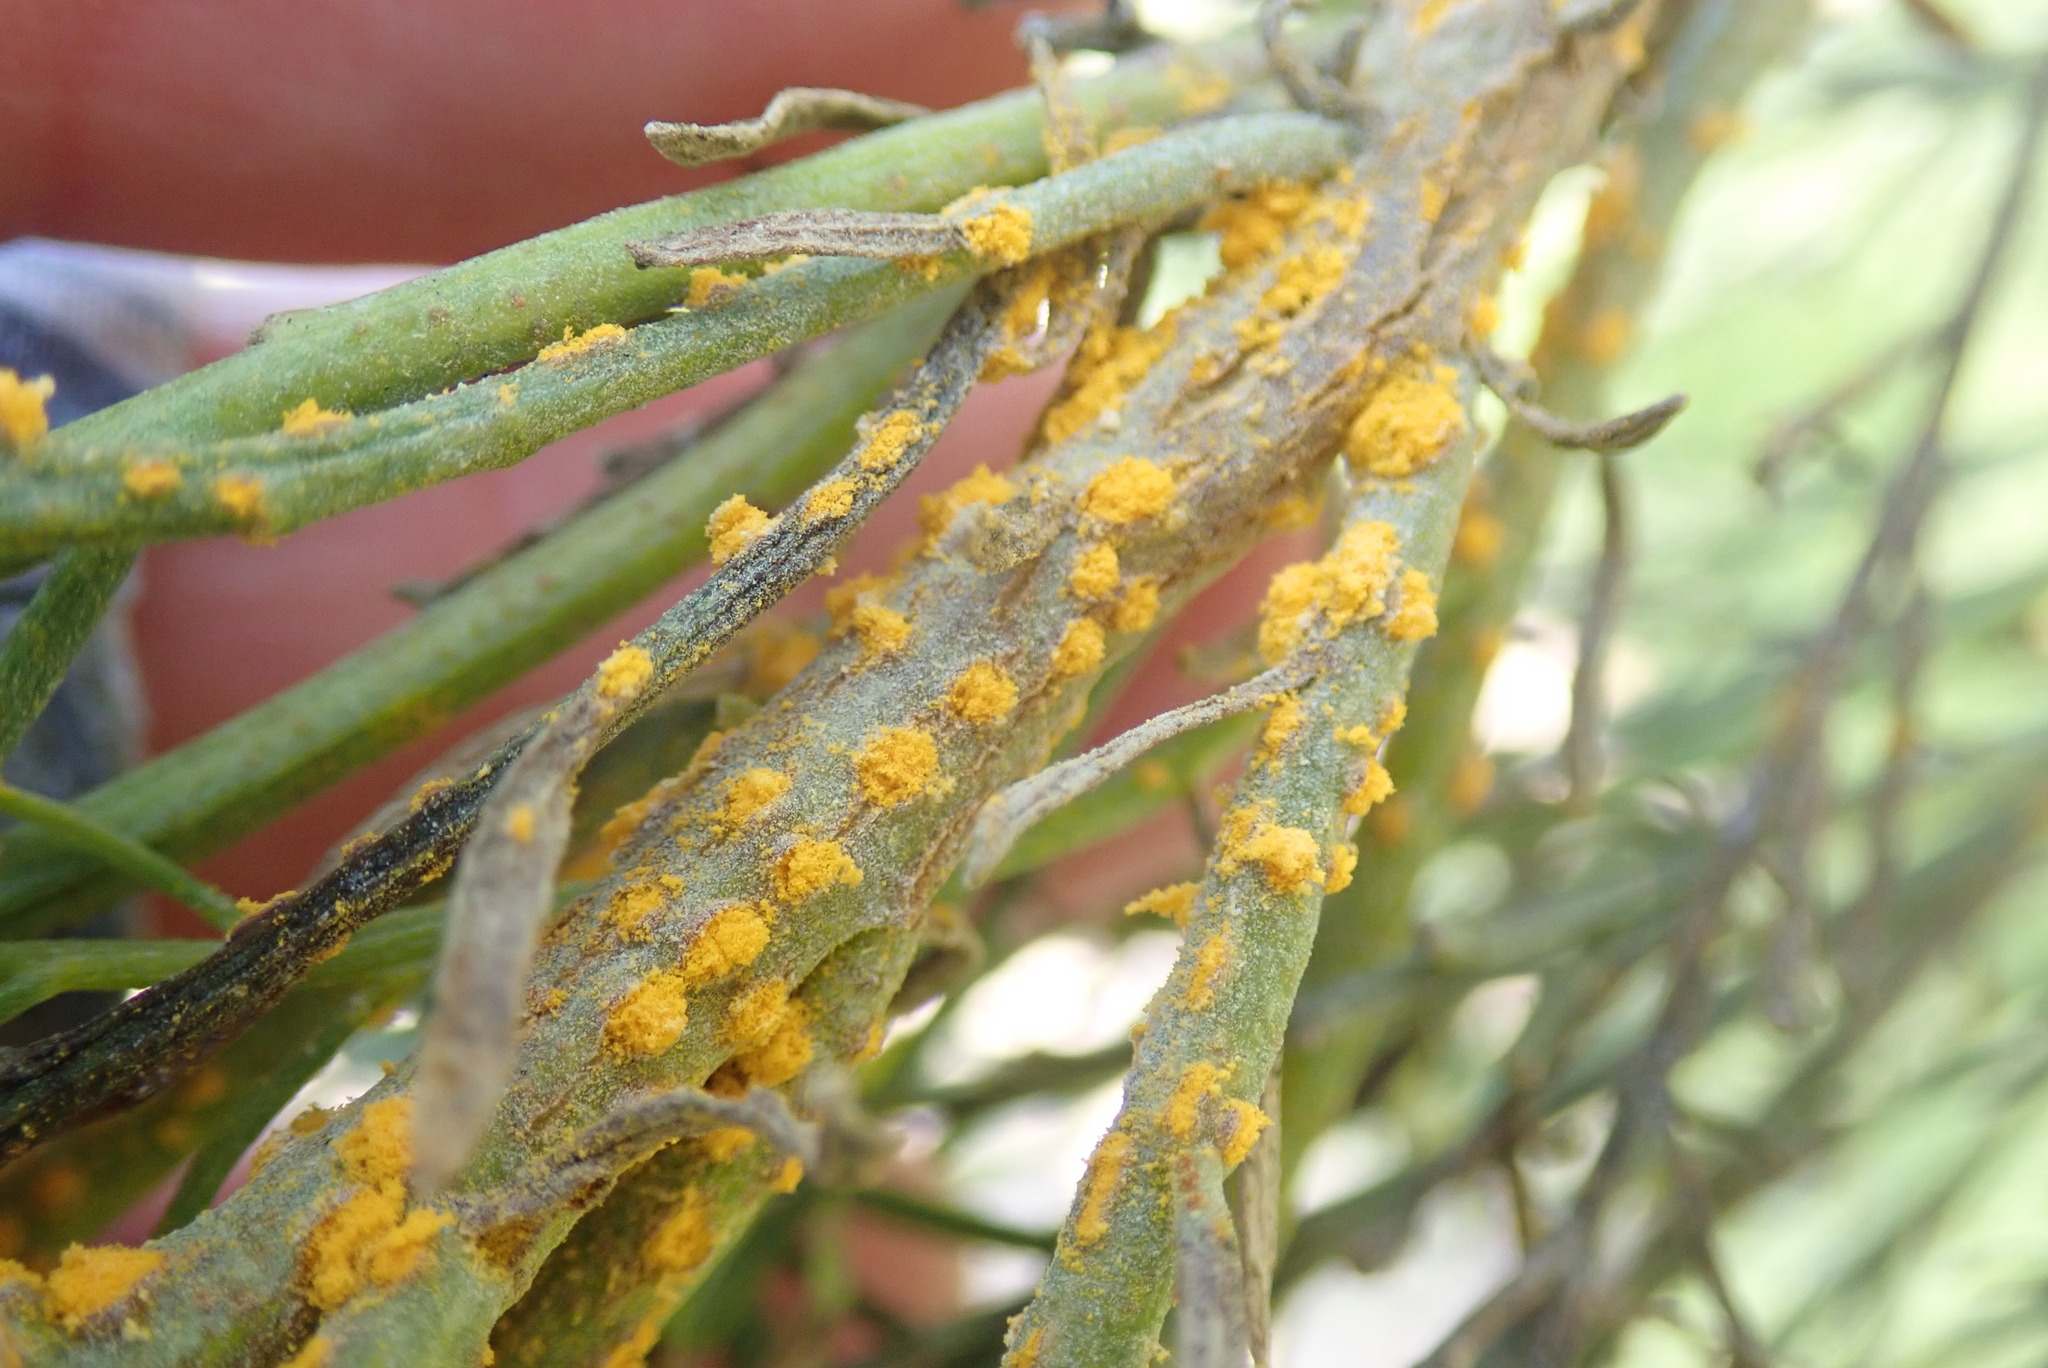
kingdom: Fungi
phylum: Basidiomycota
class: Pucciniomycetes
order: Pucciniales
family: Pucciniaceae
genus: Eriosporangium
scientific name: Eriosporangium evadens
